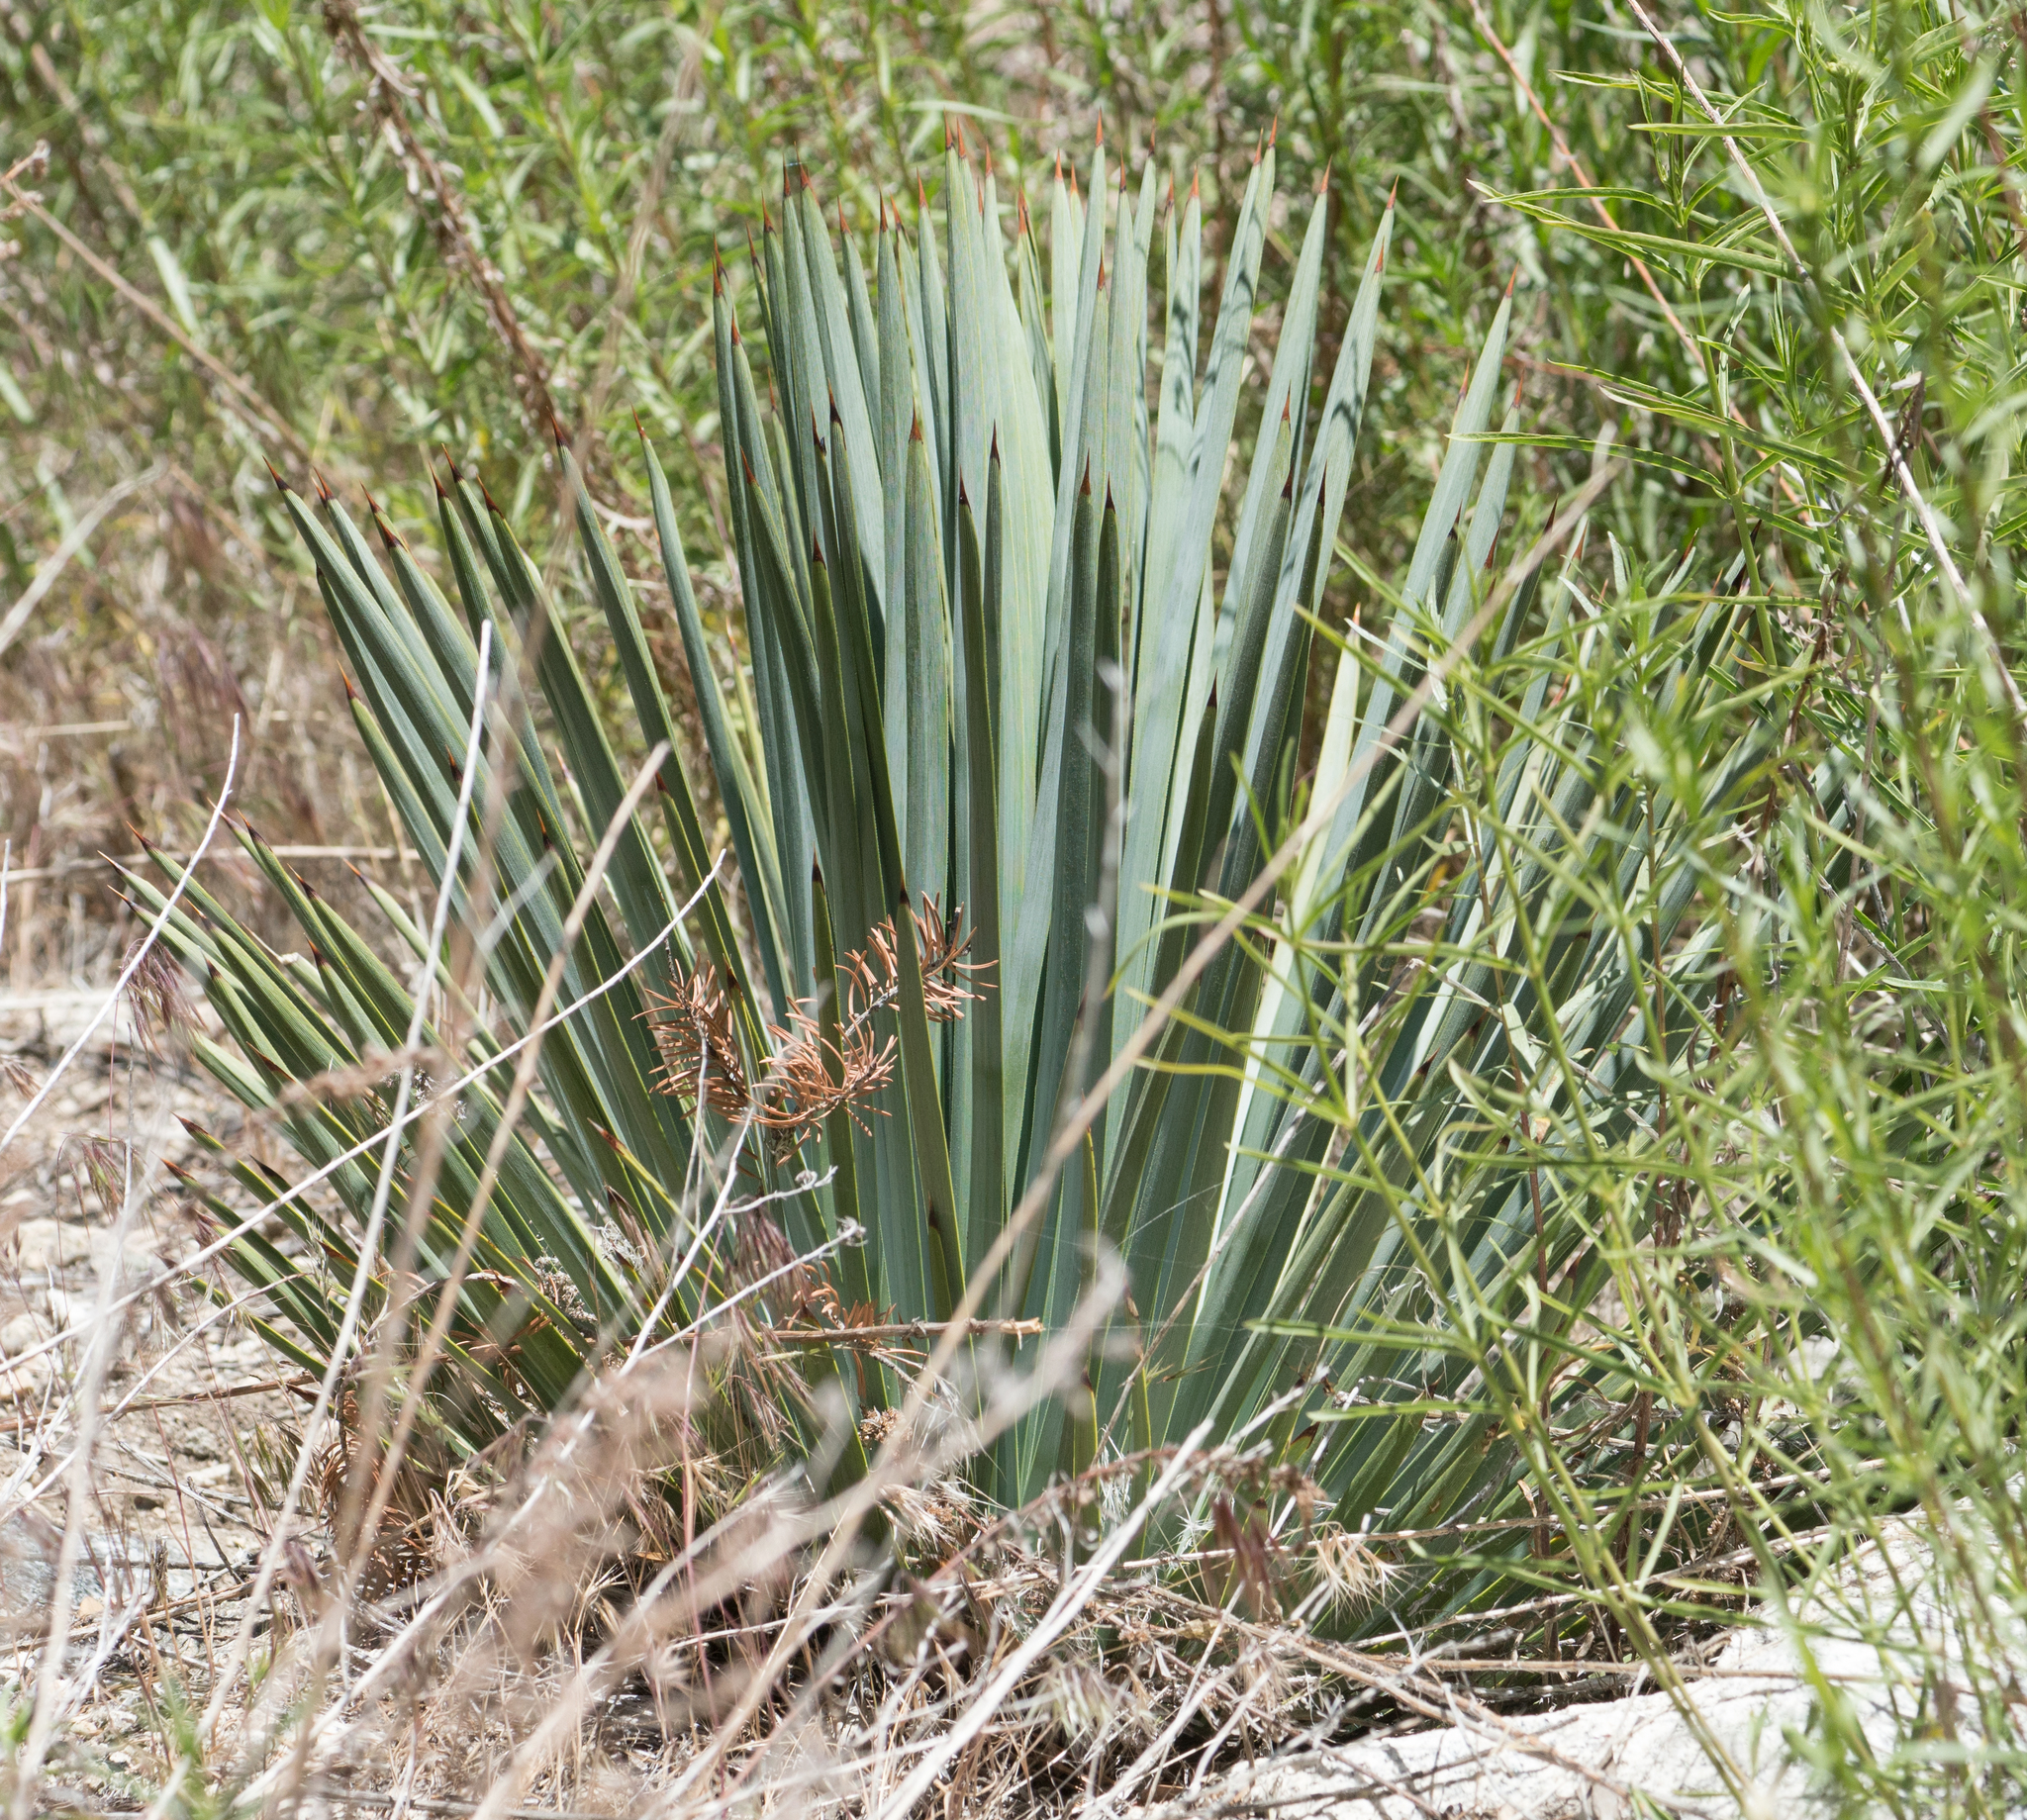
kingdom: Plantae
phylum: Tracheophyta
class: Liliopsida
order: Asparagales
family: Asparagaceae
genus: Hesperoyucca
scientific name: Hesperoyucca whipplei
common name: Our lord's-candle
